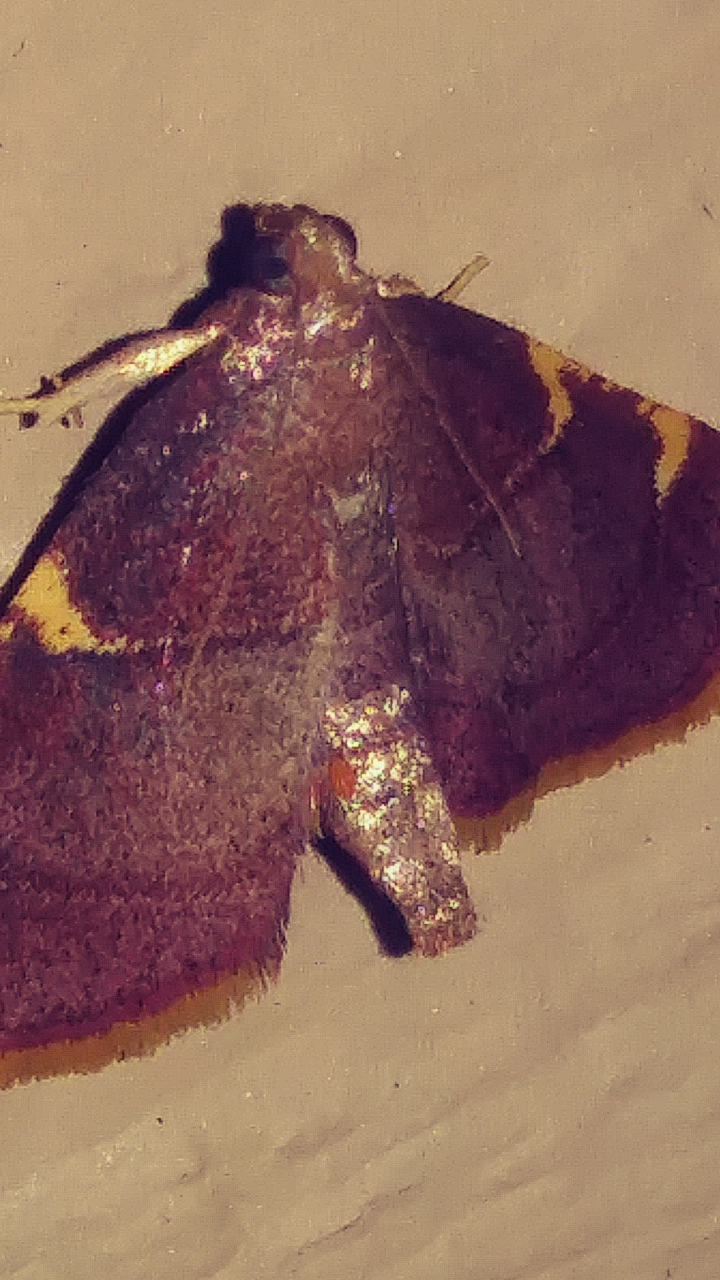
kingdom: Animalia
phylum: Arthropoda
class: Insecta
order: Lepidoptera
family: Pyralidae
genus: Hypsopygia
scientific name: Hypsopygia olinalis
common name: Yellow-fringed dolichomia moth
